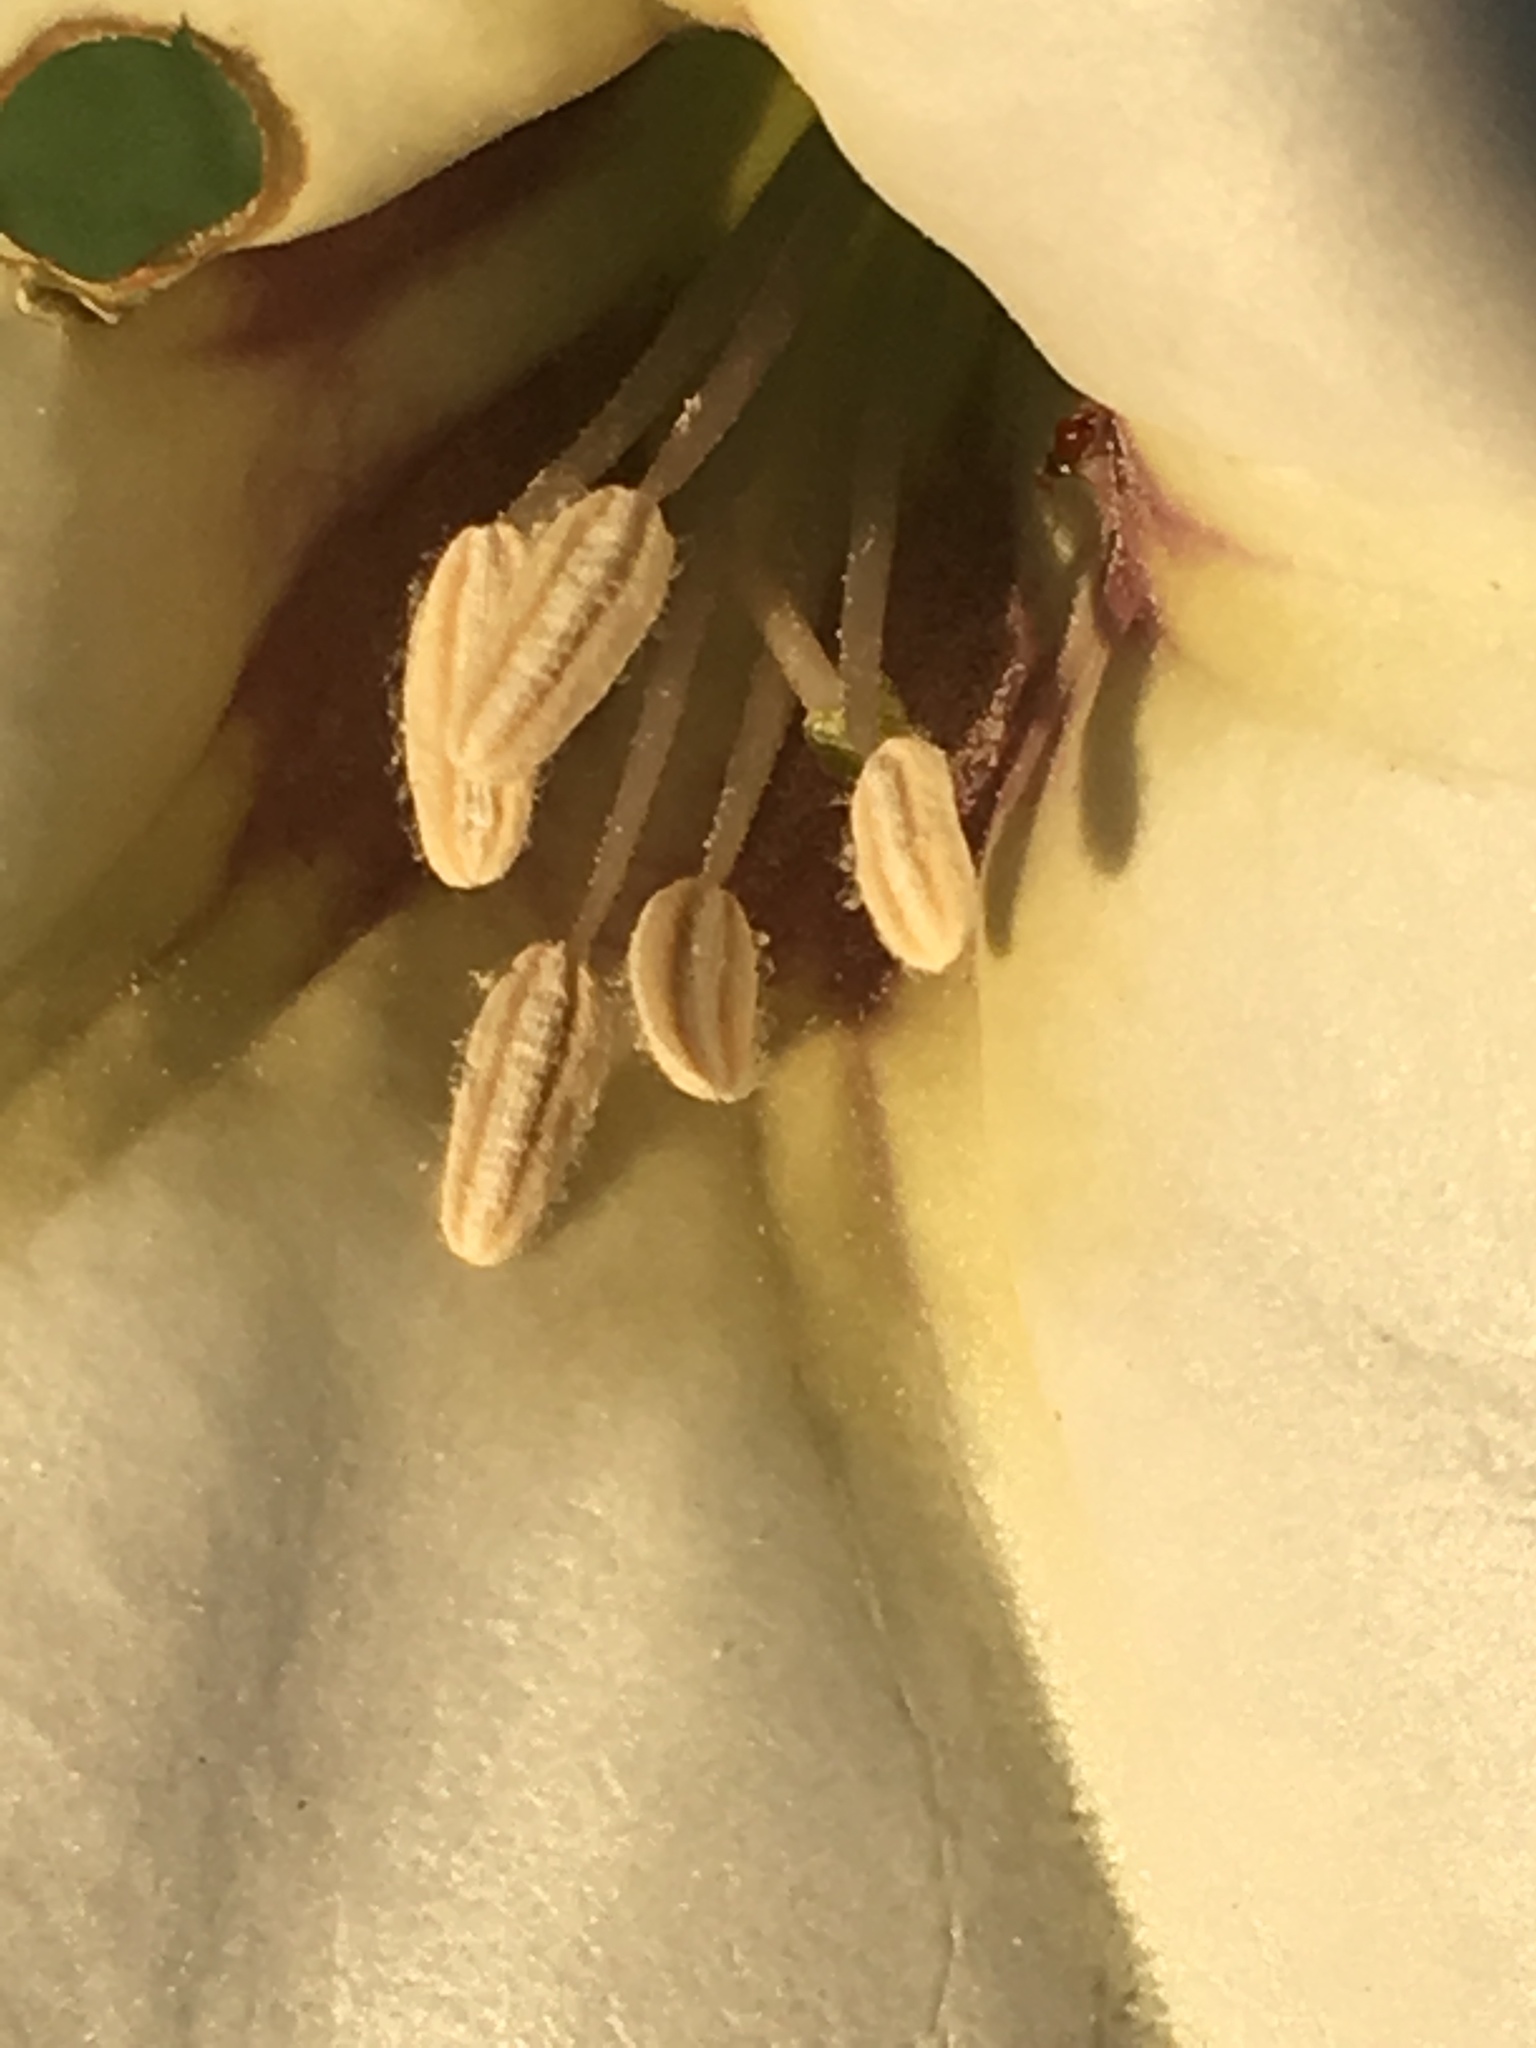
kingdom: Plantae
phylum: Tracheophyta
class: Magnoliopsida
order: Solanales
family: Solanaceae
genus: Datura
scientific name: Datura discolor
